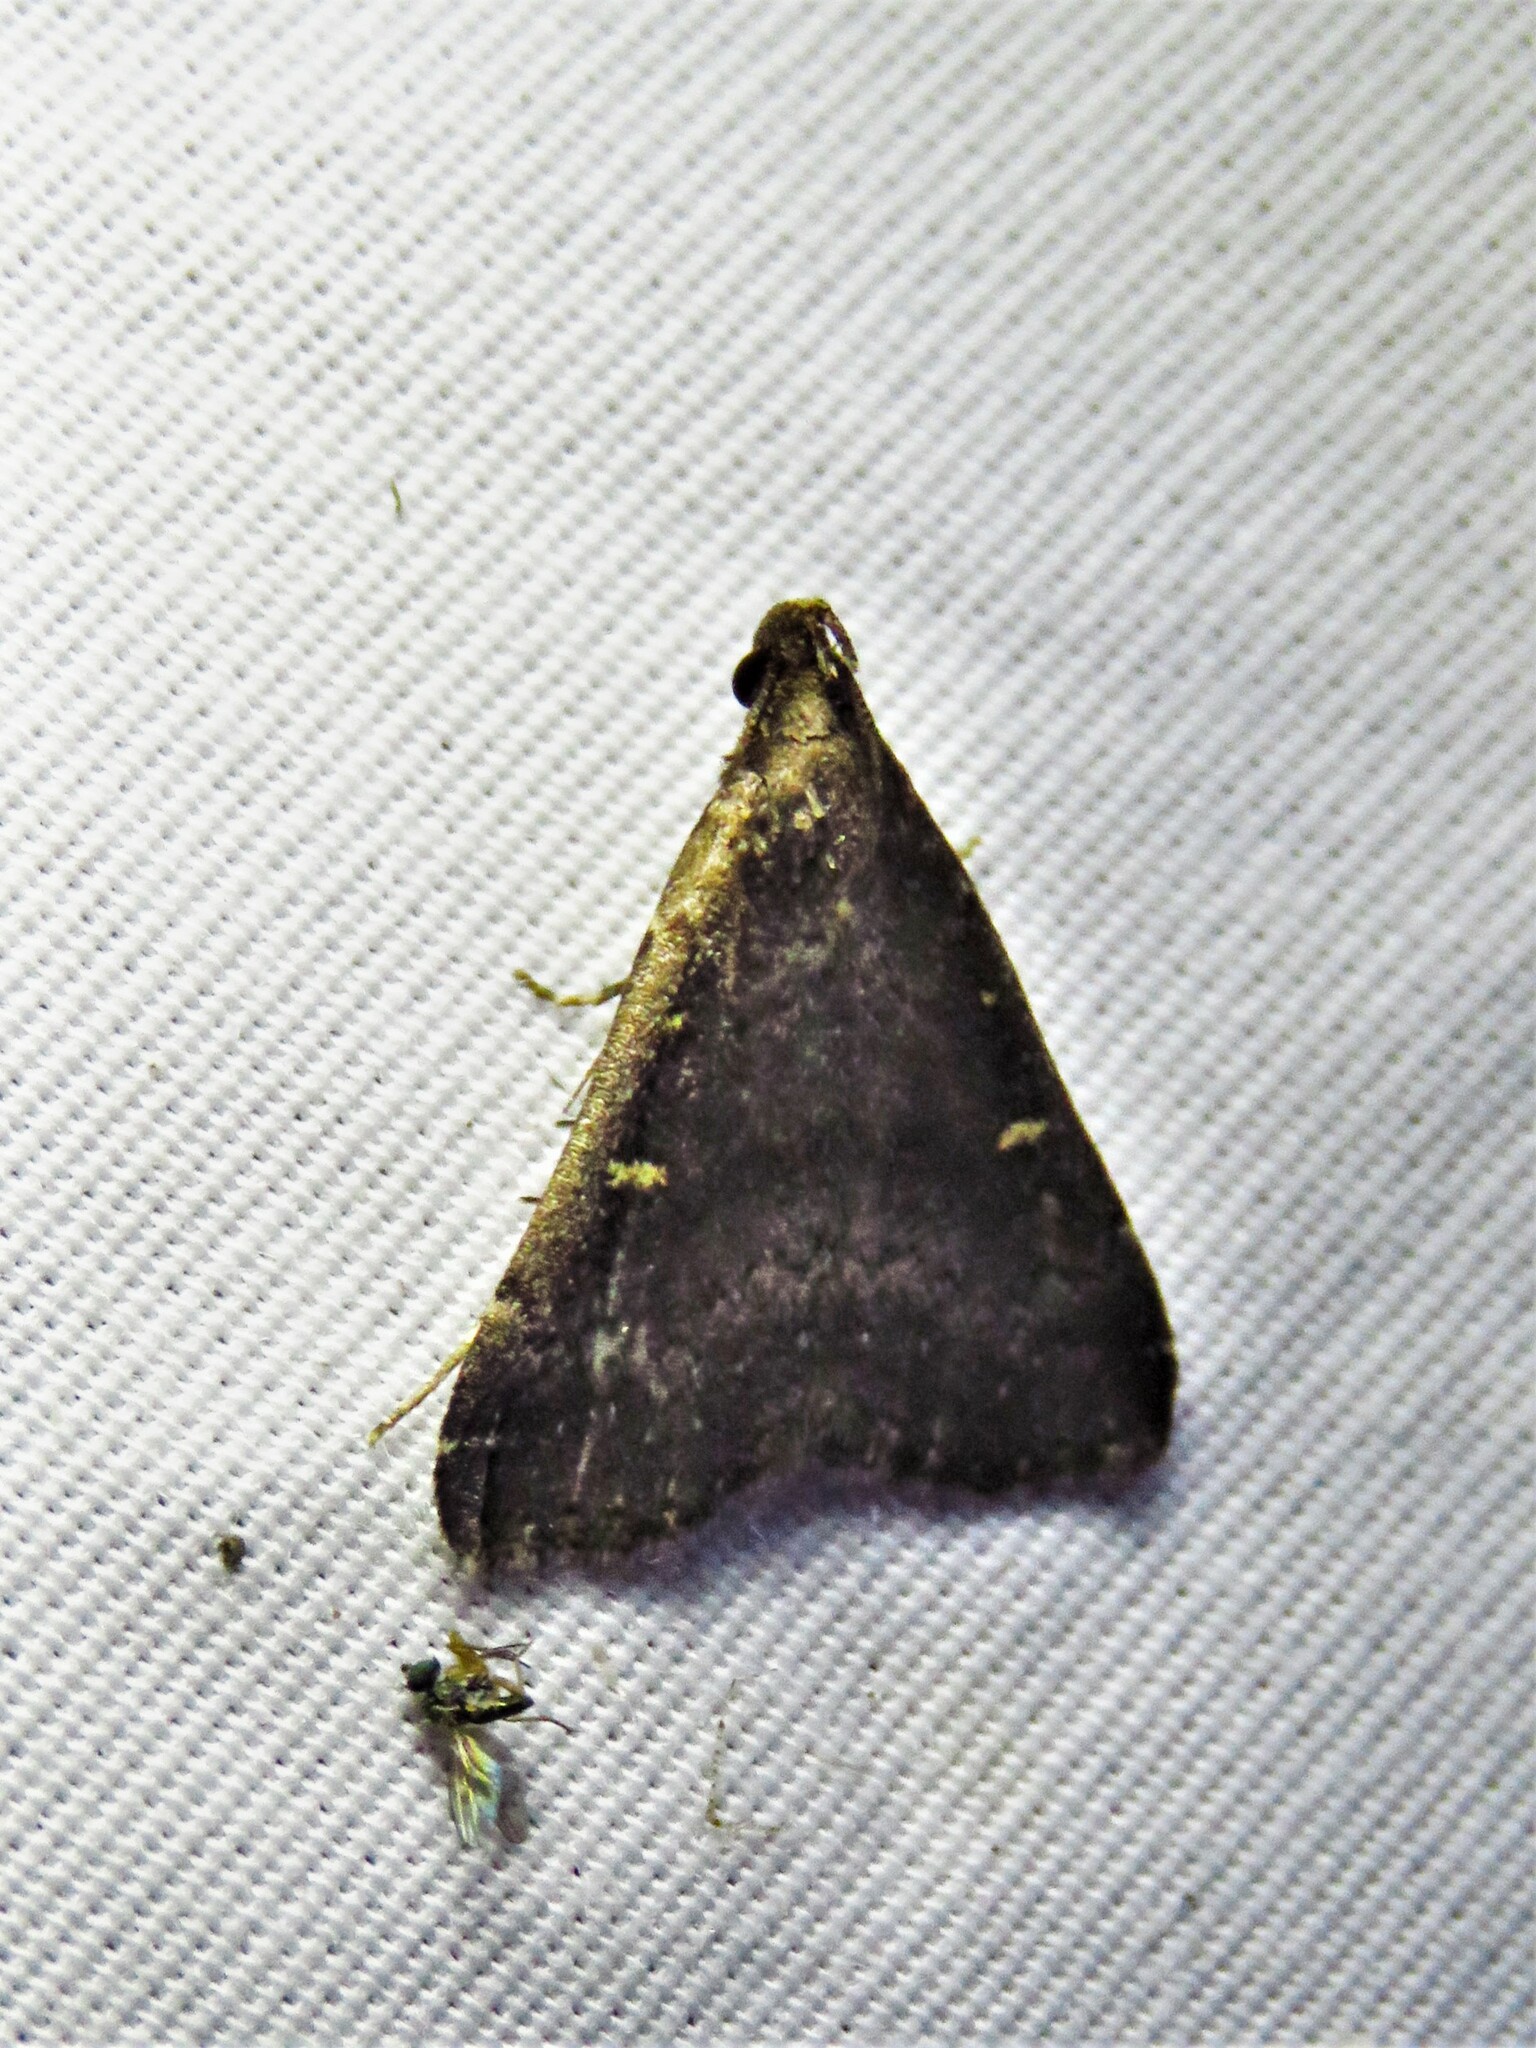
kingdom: Animalia
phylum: Arthropoda
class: Insecta
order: Lepidoptera
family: Erebidae
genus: Tetanolita
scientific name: Tetanolita mynesalis
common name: Smoky tetanolita moth
